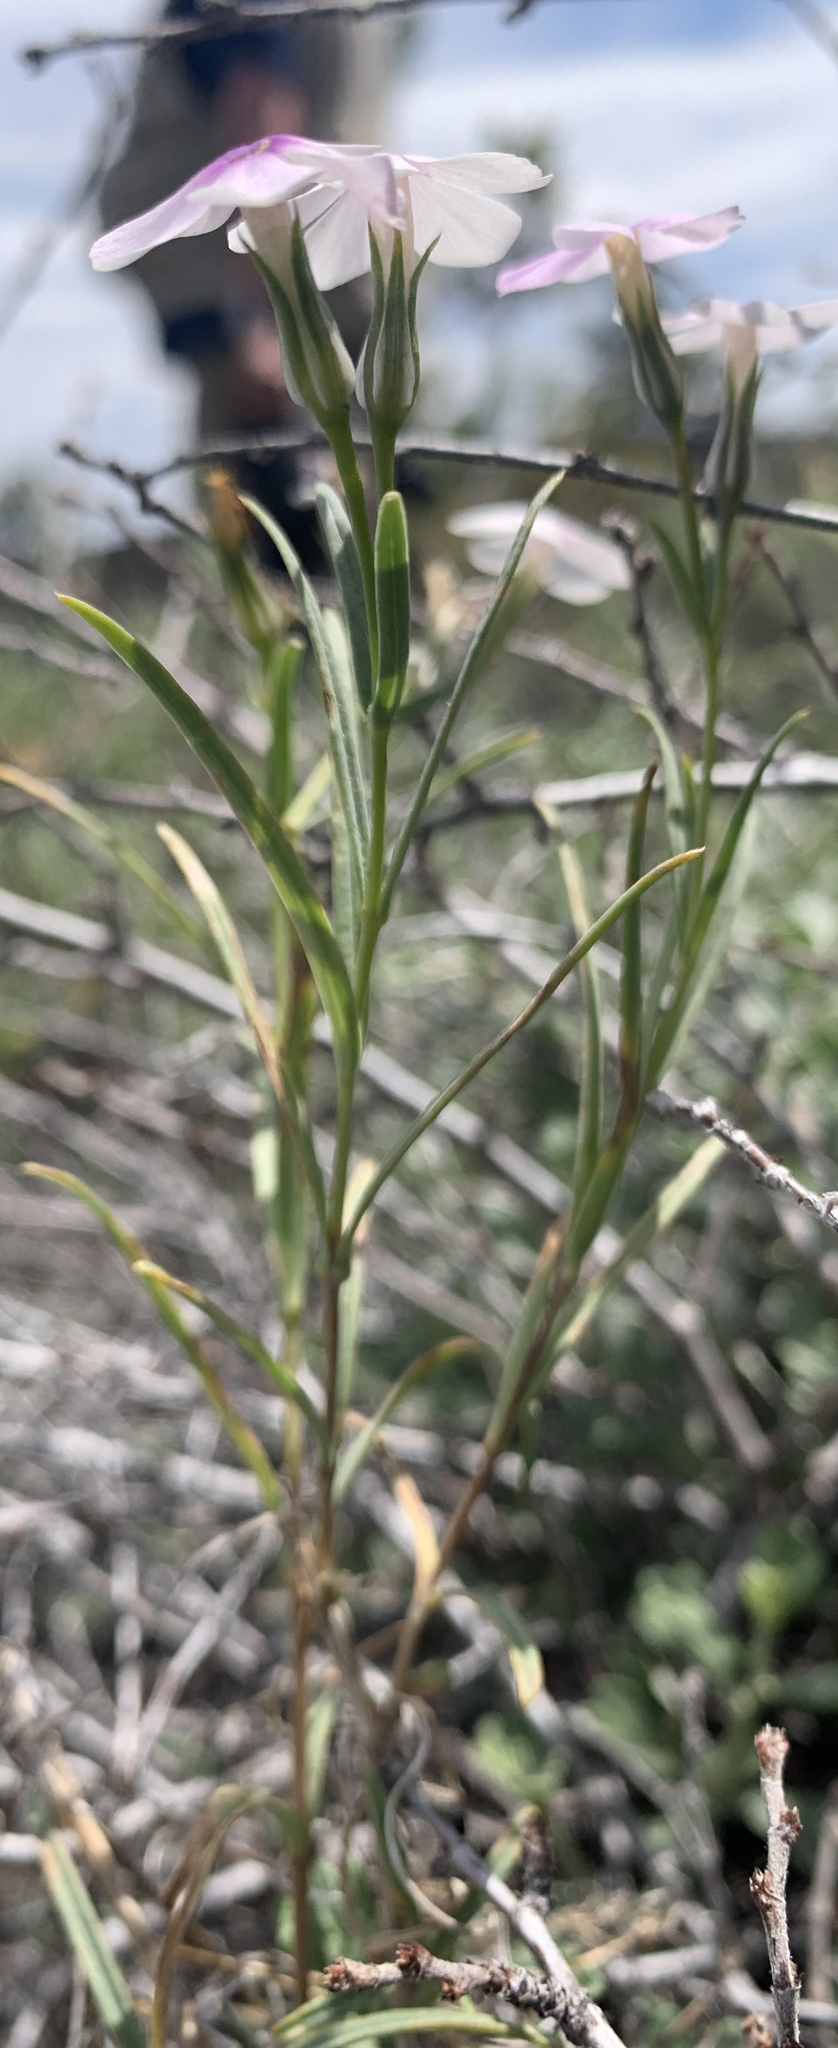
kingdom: Plantae
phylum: Tracheophyta
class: Magnoliopsida
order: Ericales
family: Polemoniaceae
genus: Phlox
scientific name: Phlox longifolia
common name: Longleaf phlox
